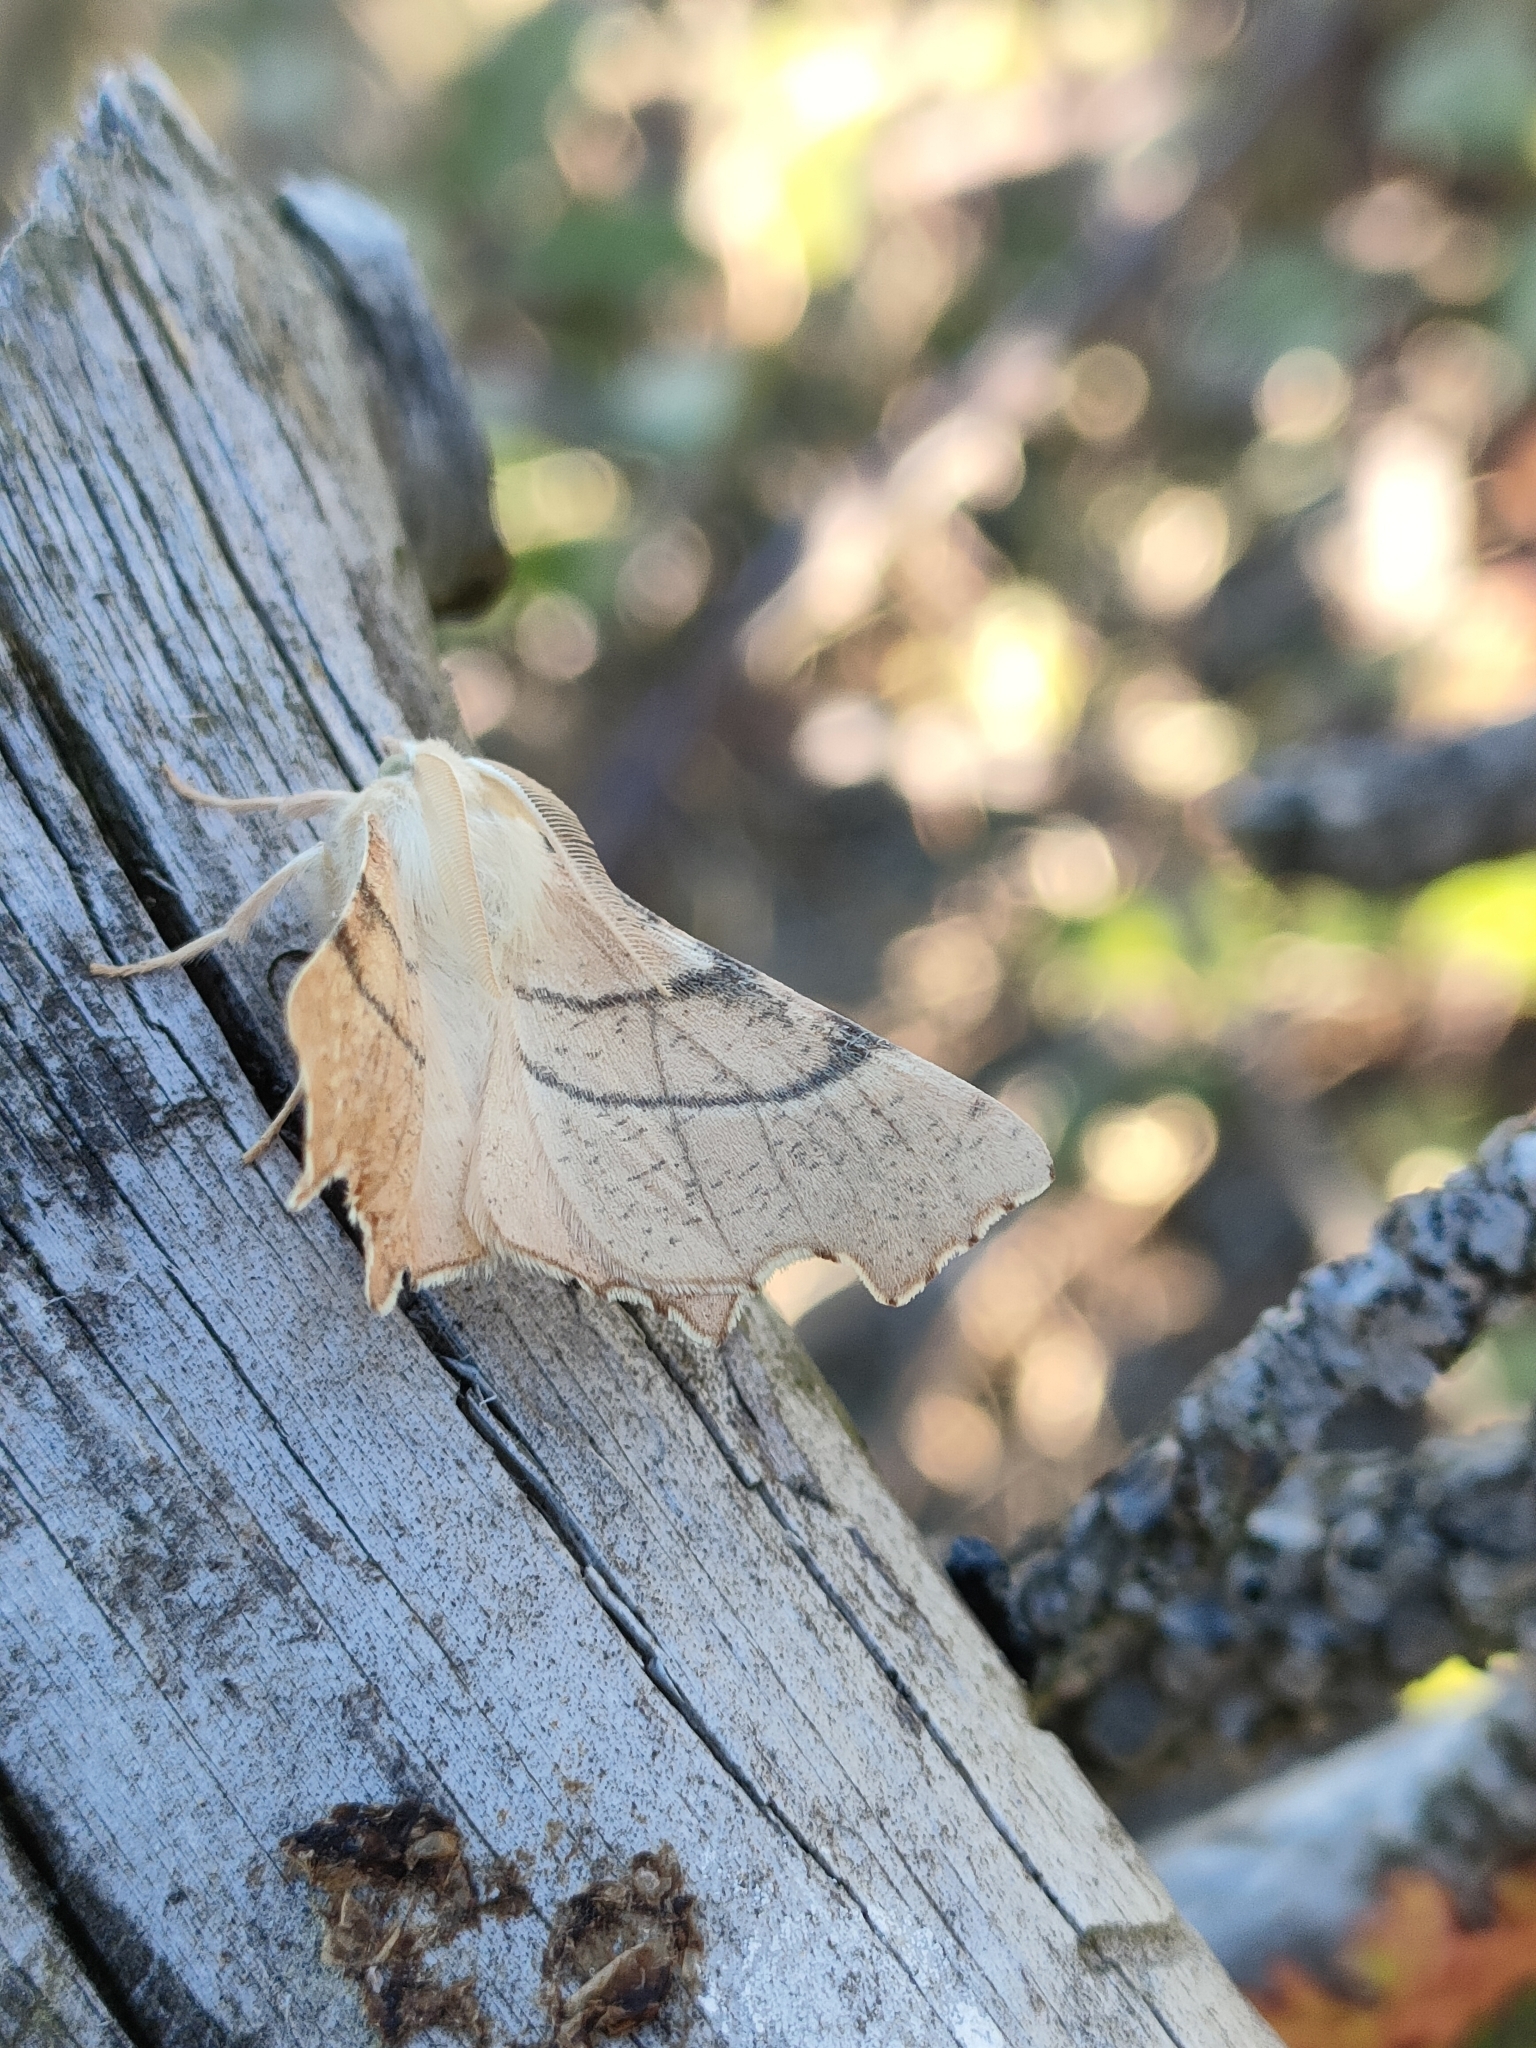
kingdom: Animalia
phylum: Arthropoda
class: Insecta
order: Lepidoptera
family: Geometridae
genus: Ennomos
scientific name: Ennomos quercaria
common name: Clouded august thorn
